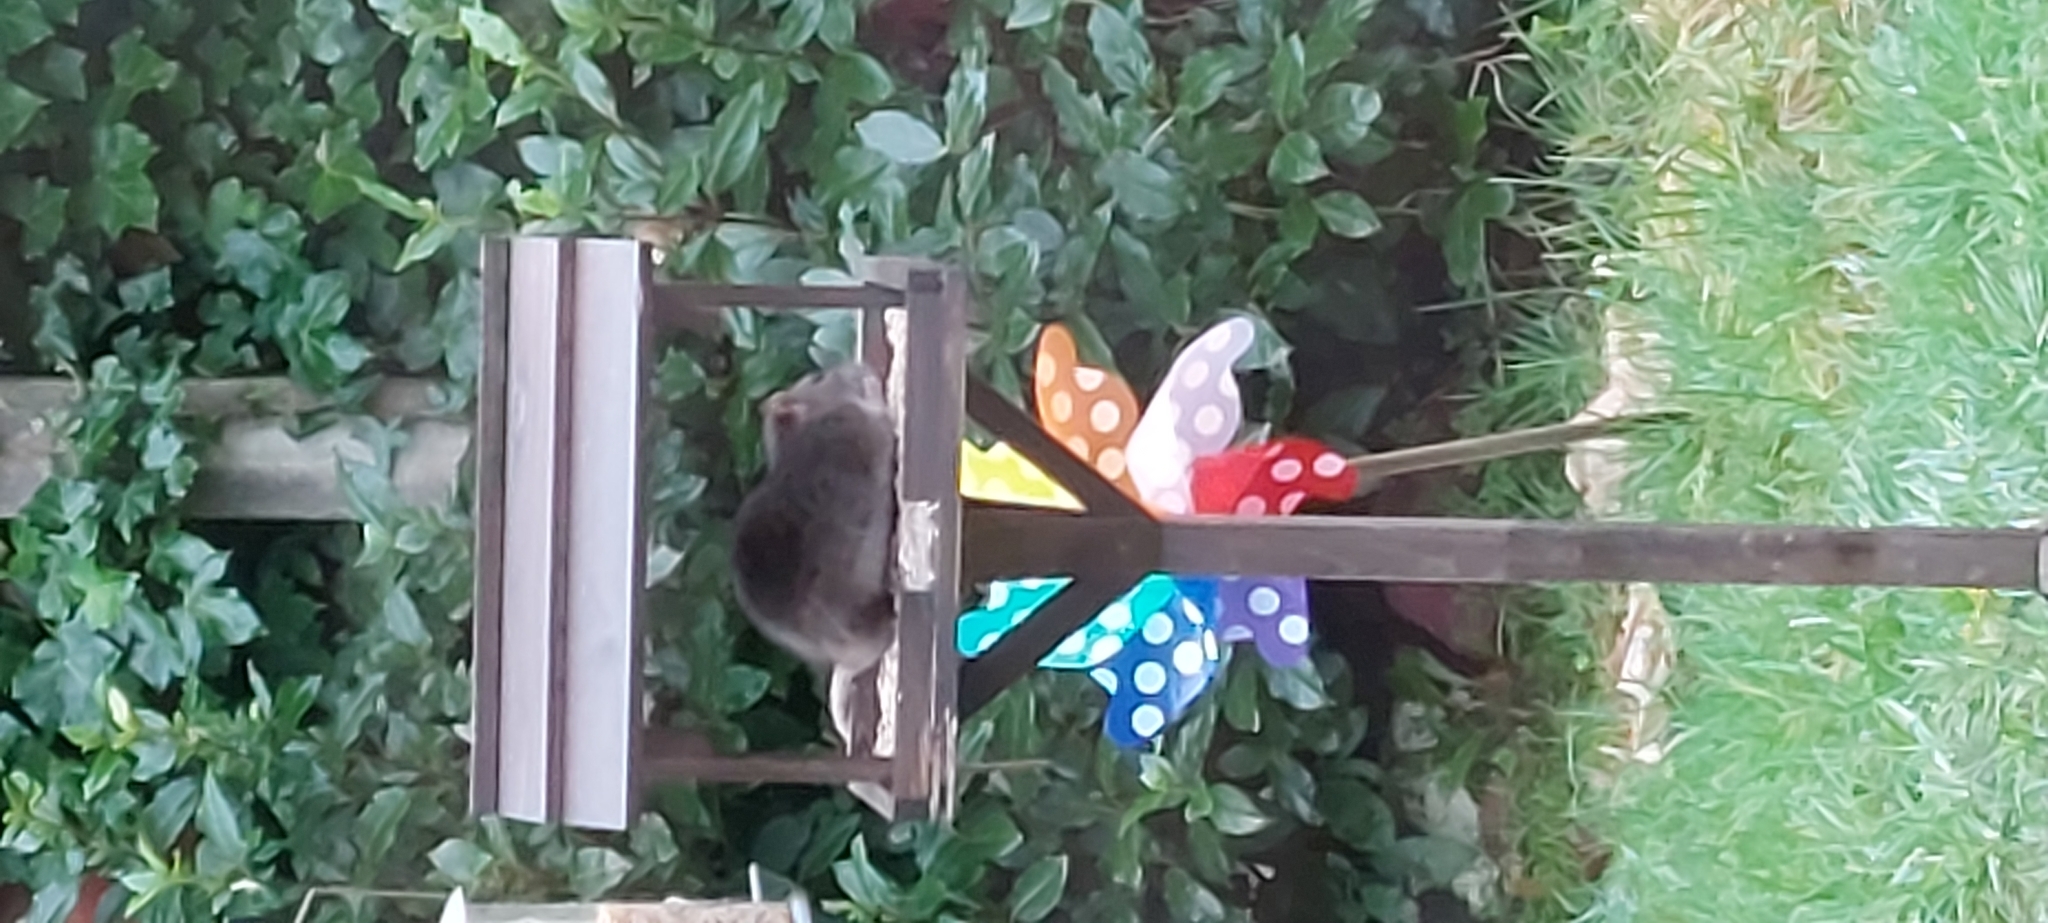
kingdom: Animalia
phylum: Chordata
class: Mammalia
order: Rodentia
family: Muridae
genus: Rattus
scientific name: Rattus norvegicus
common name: Brown rat
